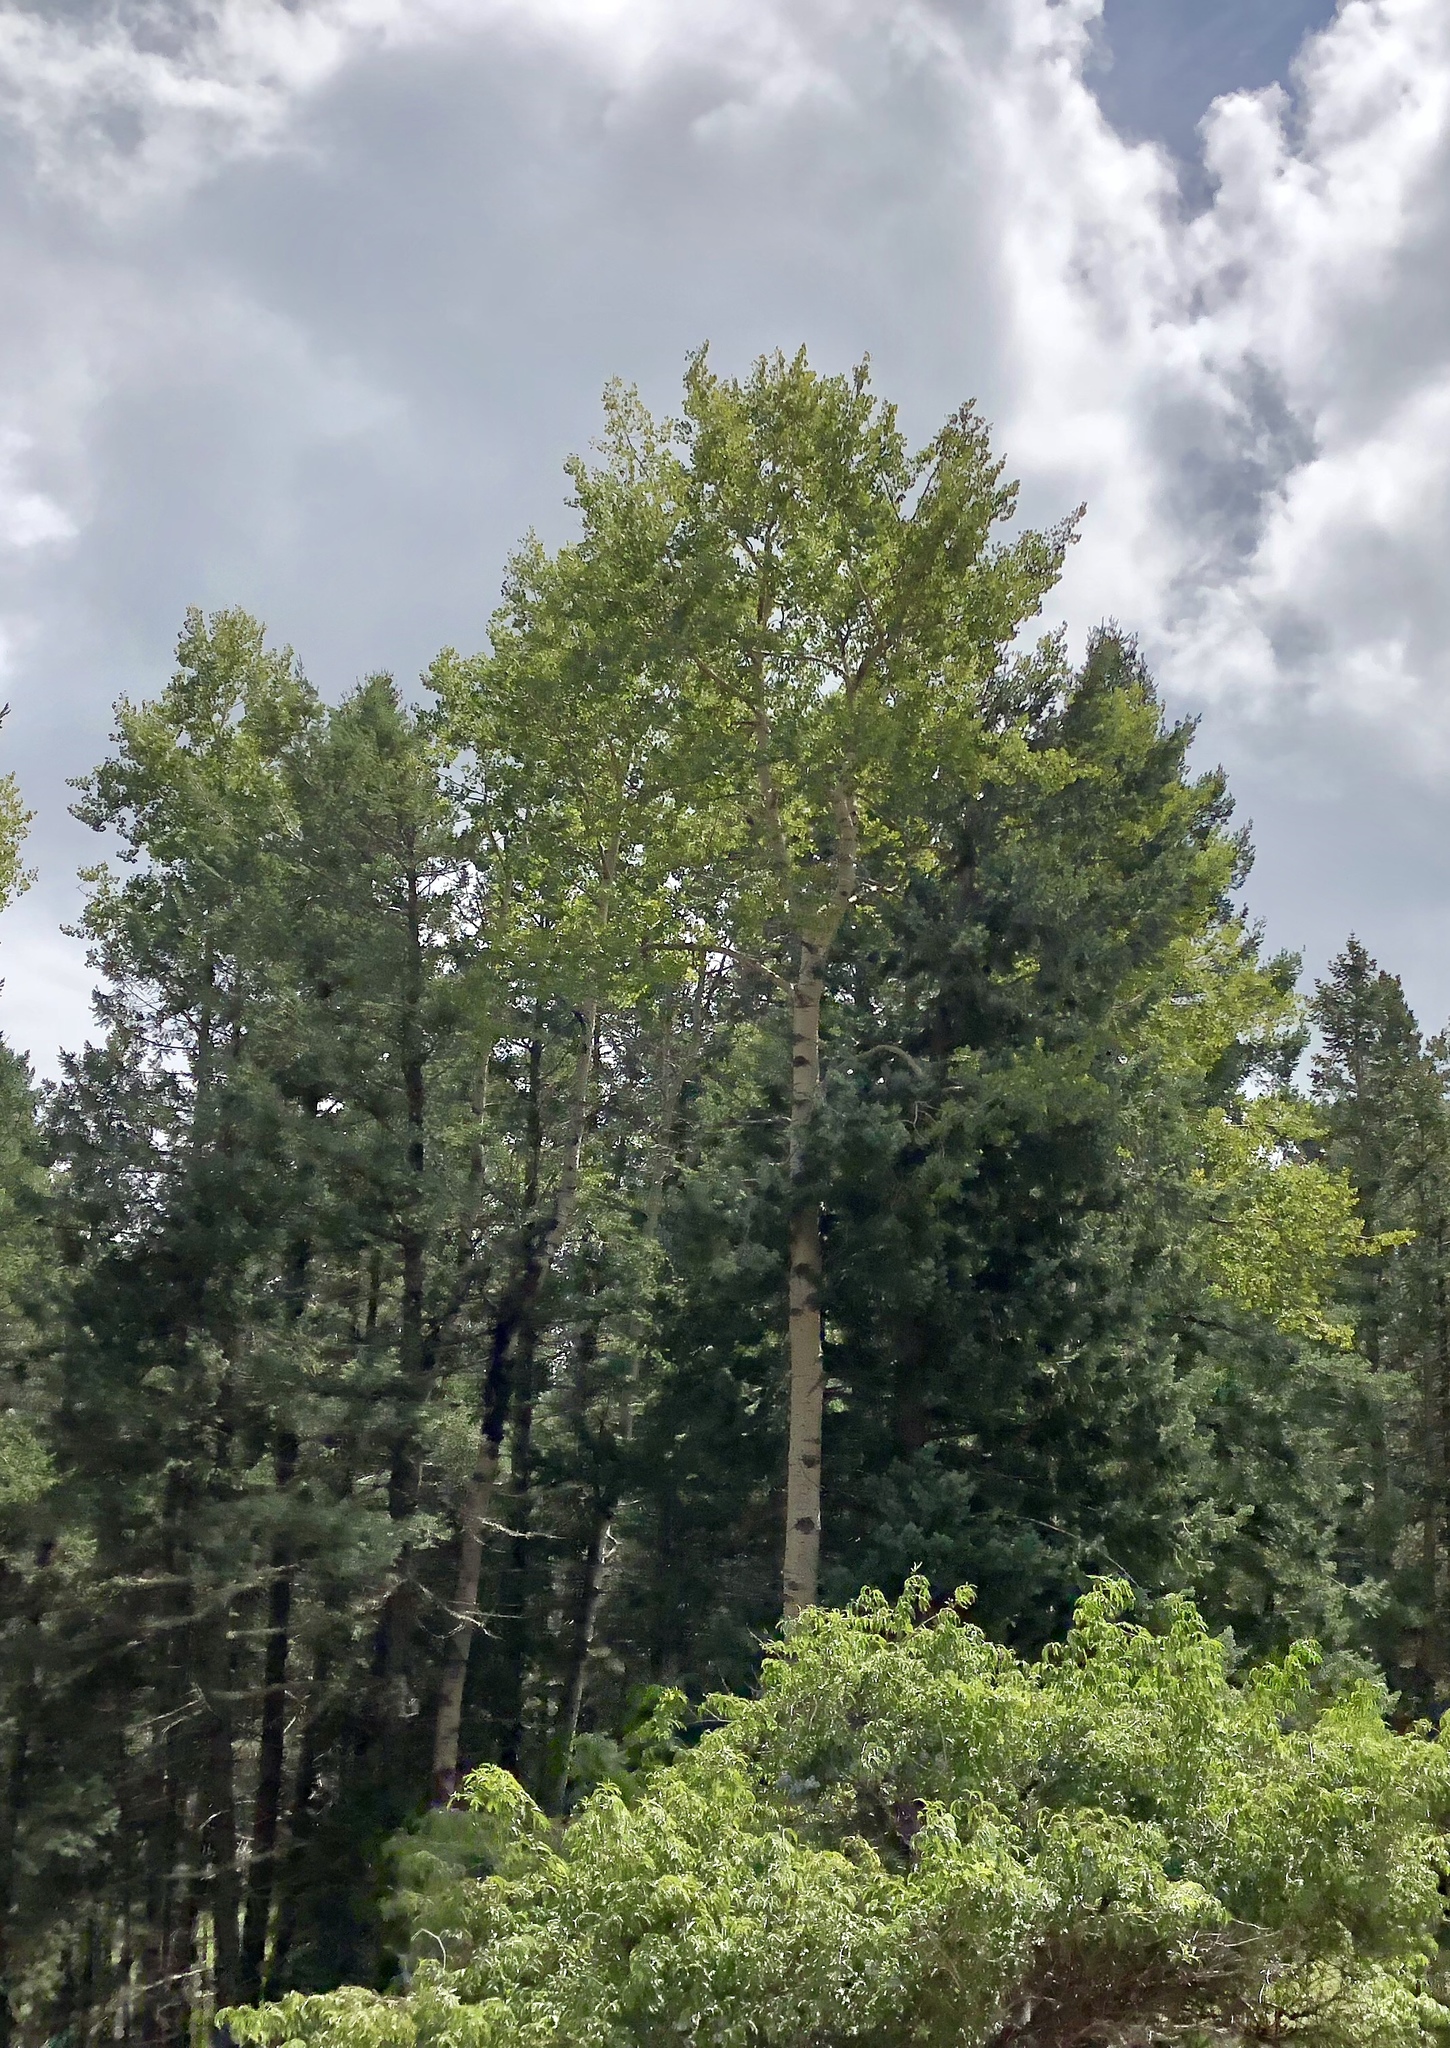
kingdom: Plantae
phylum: Tracheophyta
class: Magnoliopsida
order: Malpighiales
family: Salicaceae
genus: Populus
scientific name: Populus tremuloides
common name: Quaking aspen
